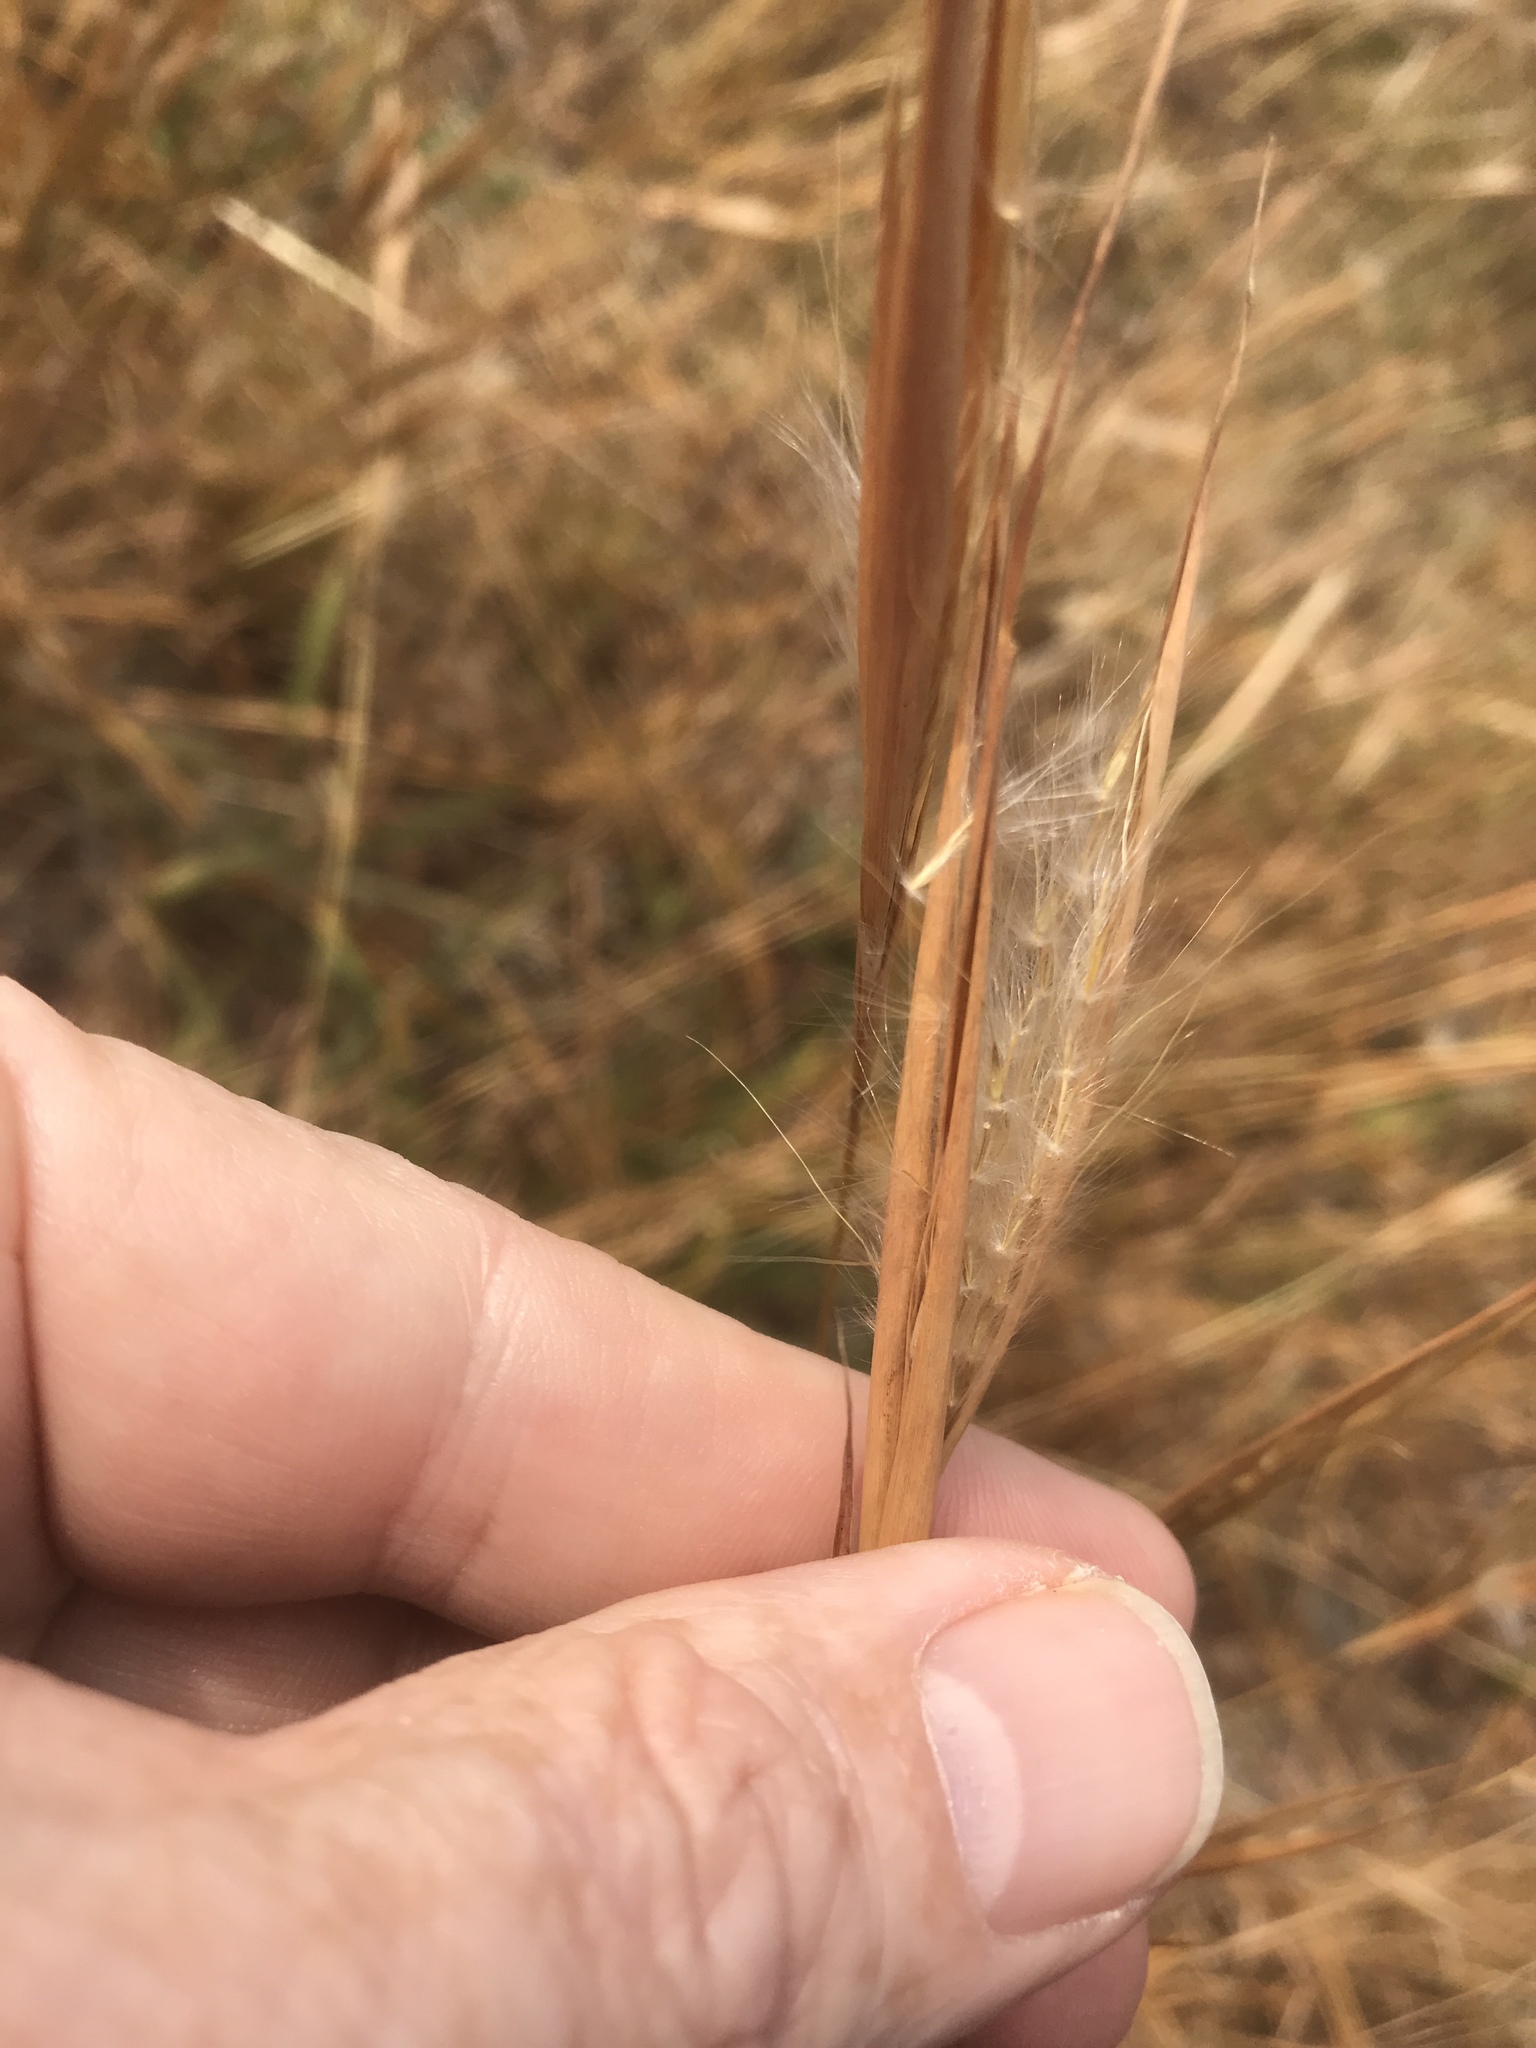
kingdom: Plantae
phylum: Tracheophyta
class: Liliopsida
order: Poales
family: Poaceae
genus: Andropogon
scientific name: Andropogon gyrans
